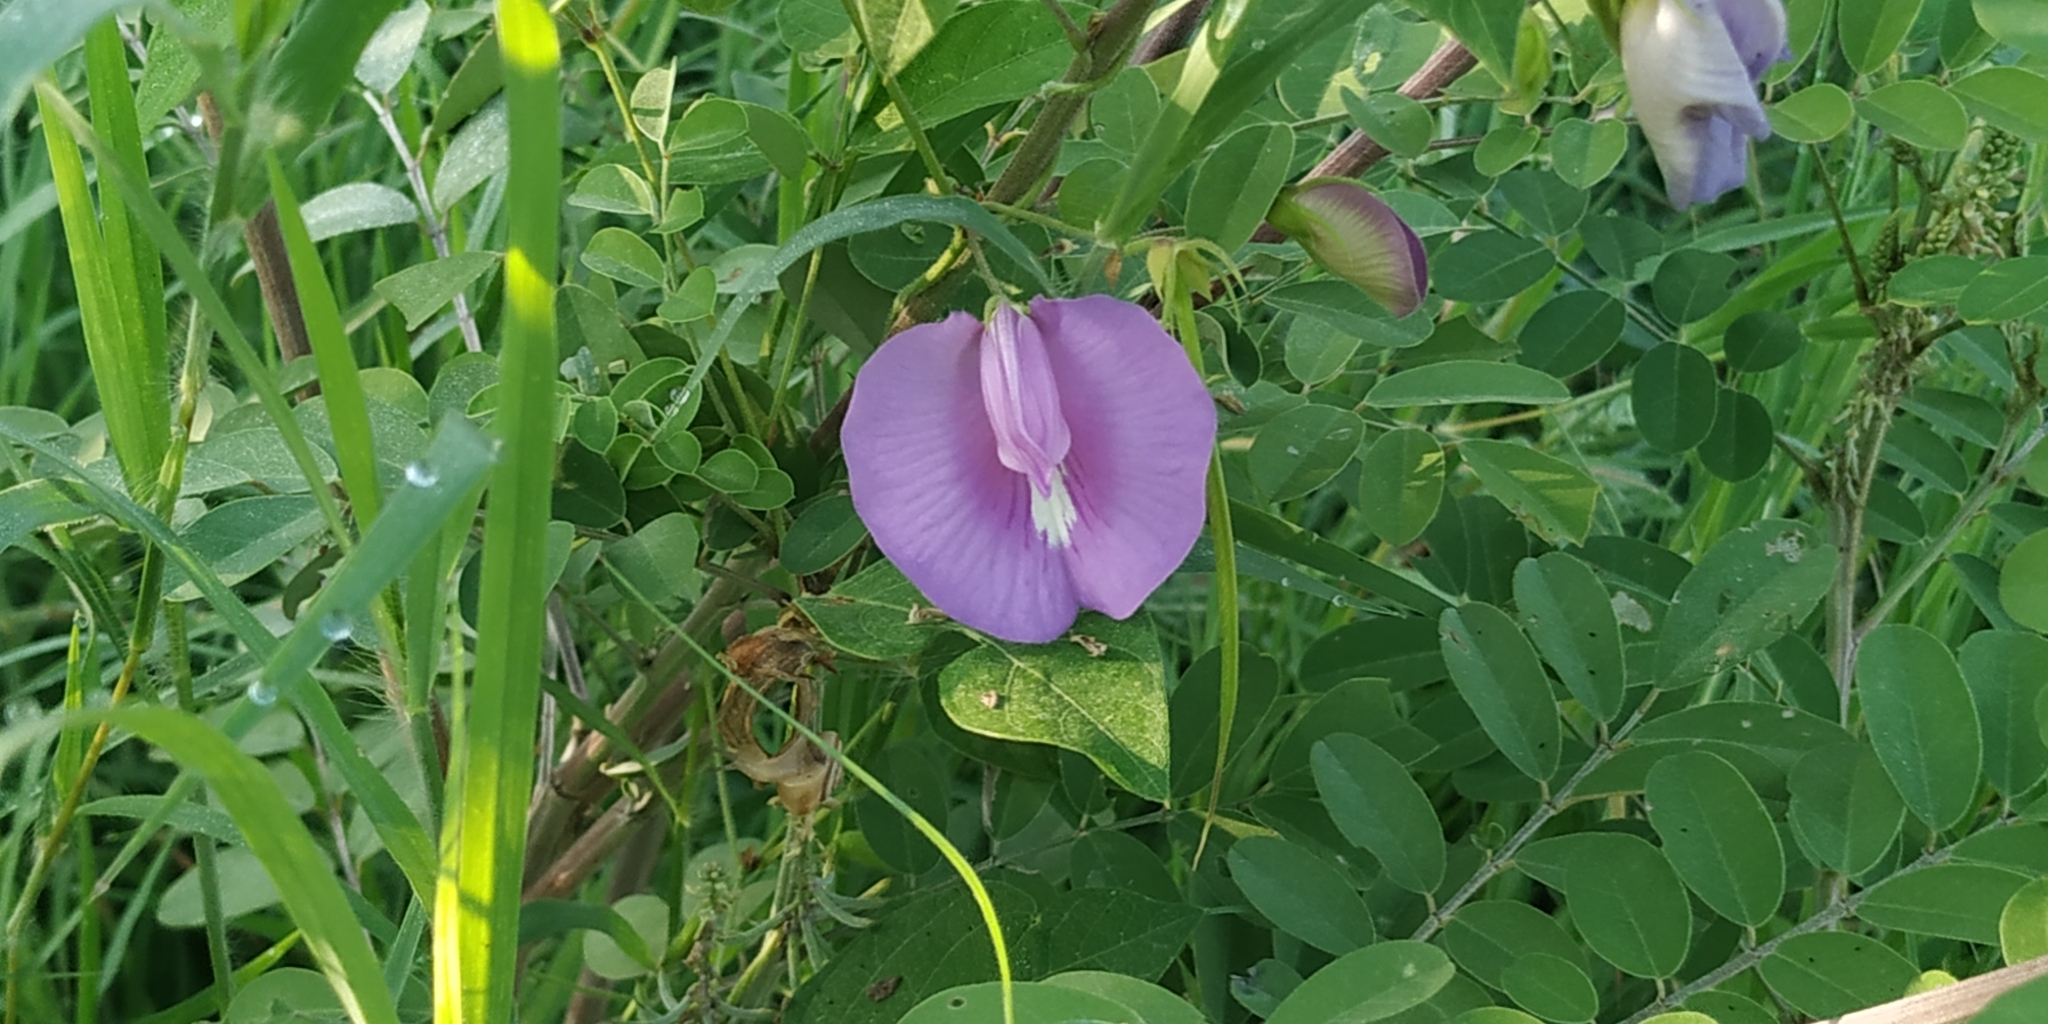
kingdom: Plantae
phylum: Tracheophyta
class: Magnoliopsida
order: Fabales
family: Fabaceae
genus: Centrosema
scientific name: Centrosema virginianum
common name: Butterfly-pea
